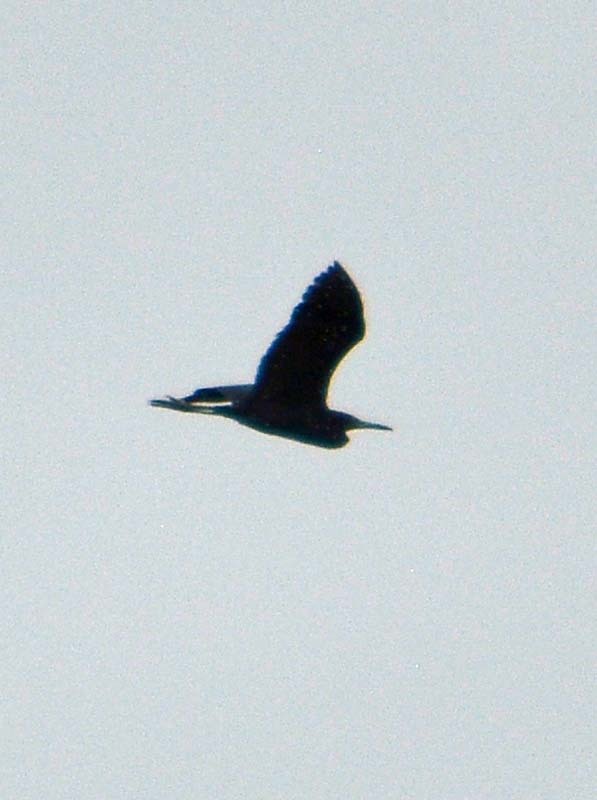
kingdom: Animalia
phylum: Chordata
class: Aves
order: Pelecaniformes
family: Ardeidae
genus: Egretta
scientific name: Egretta rufescens
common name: Reddish egret
